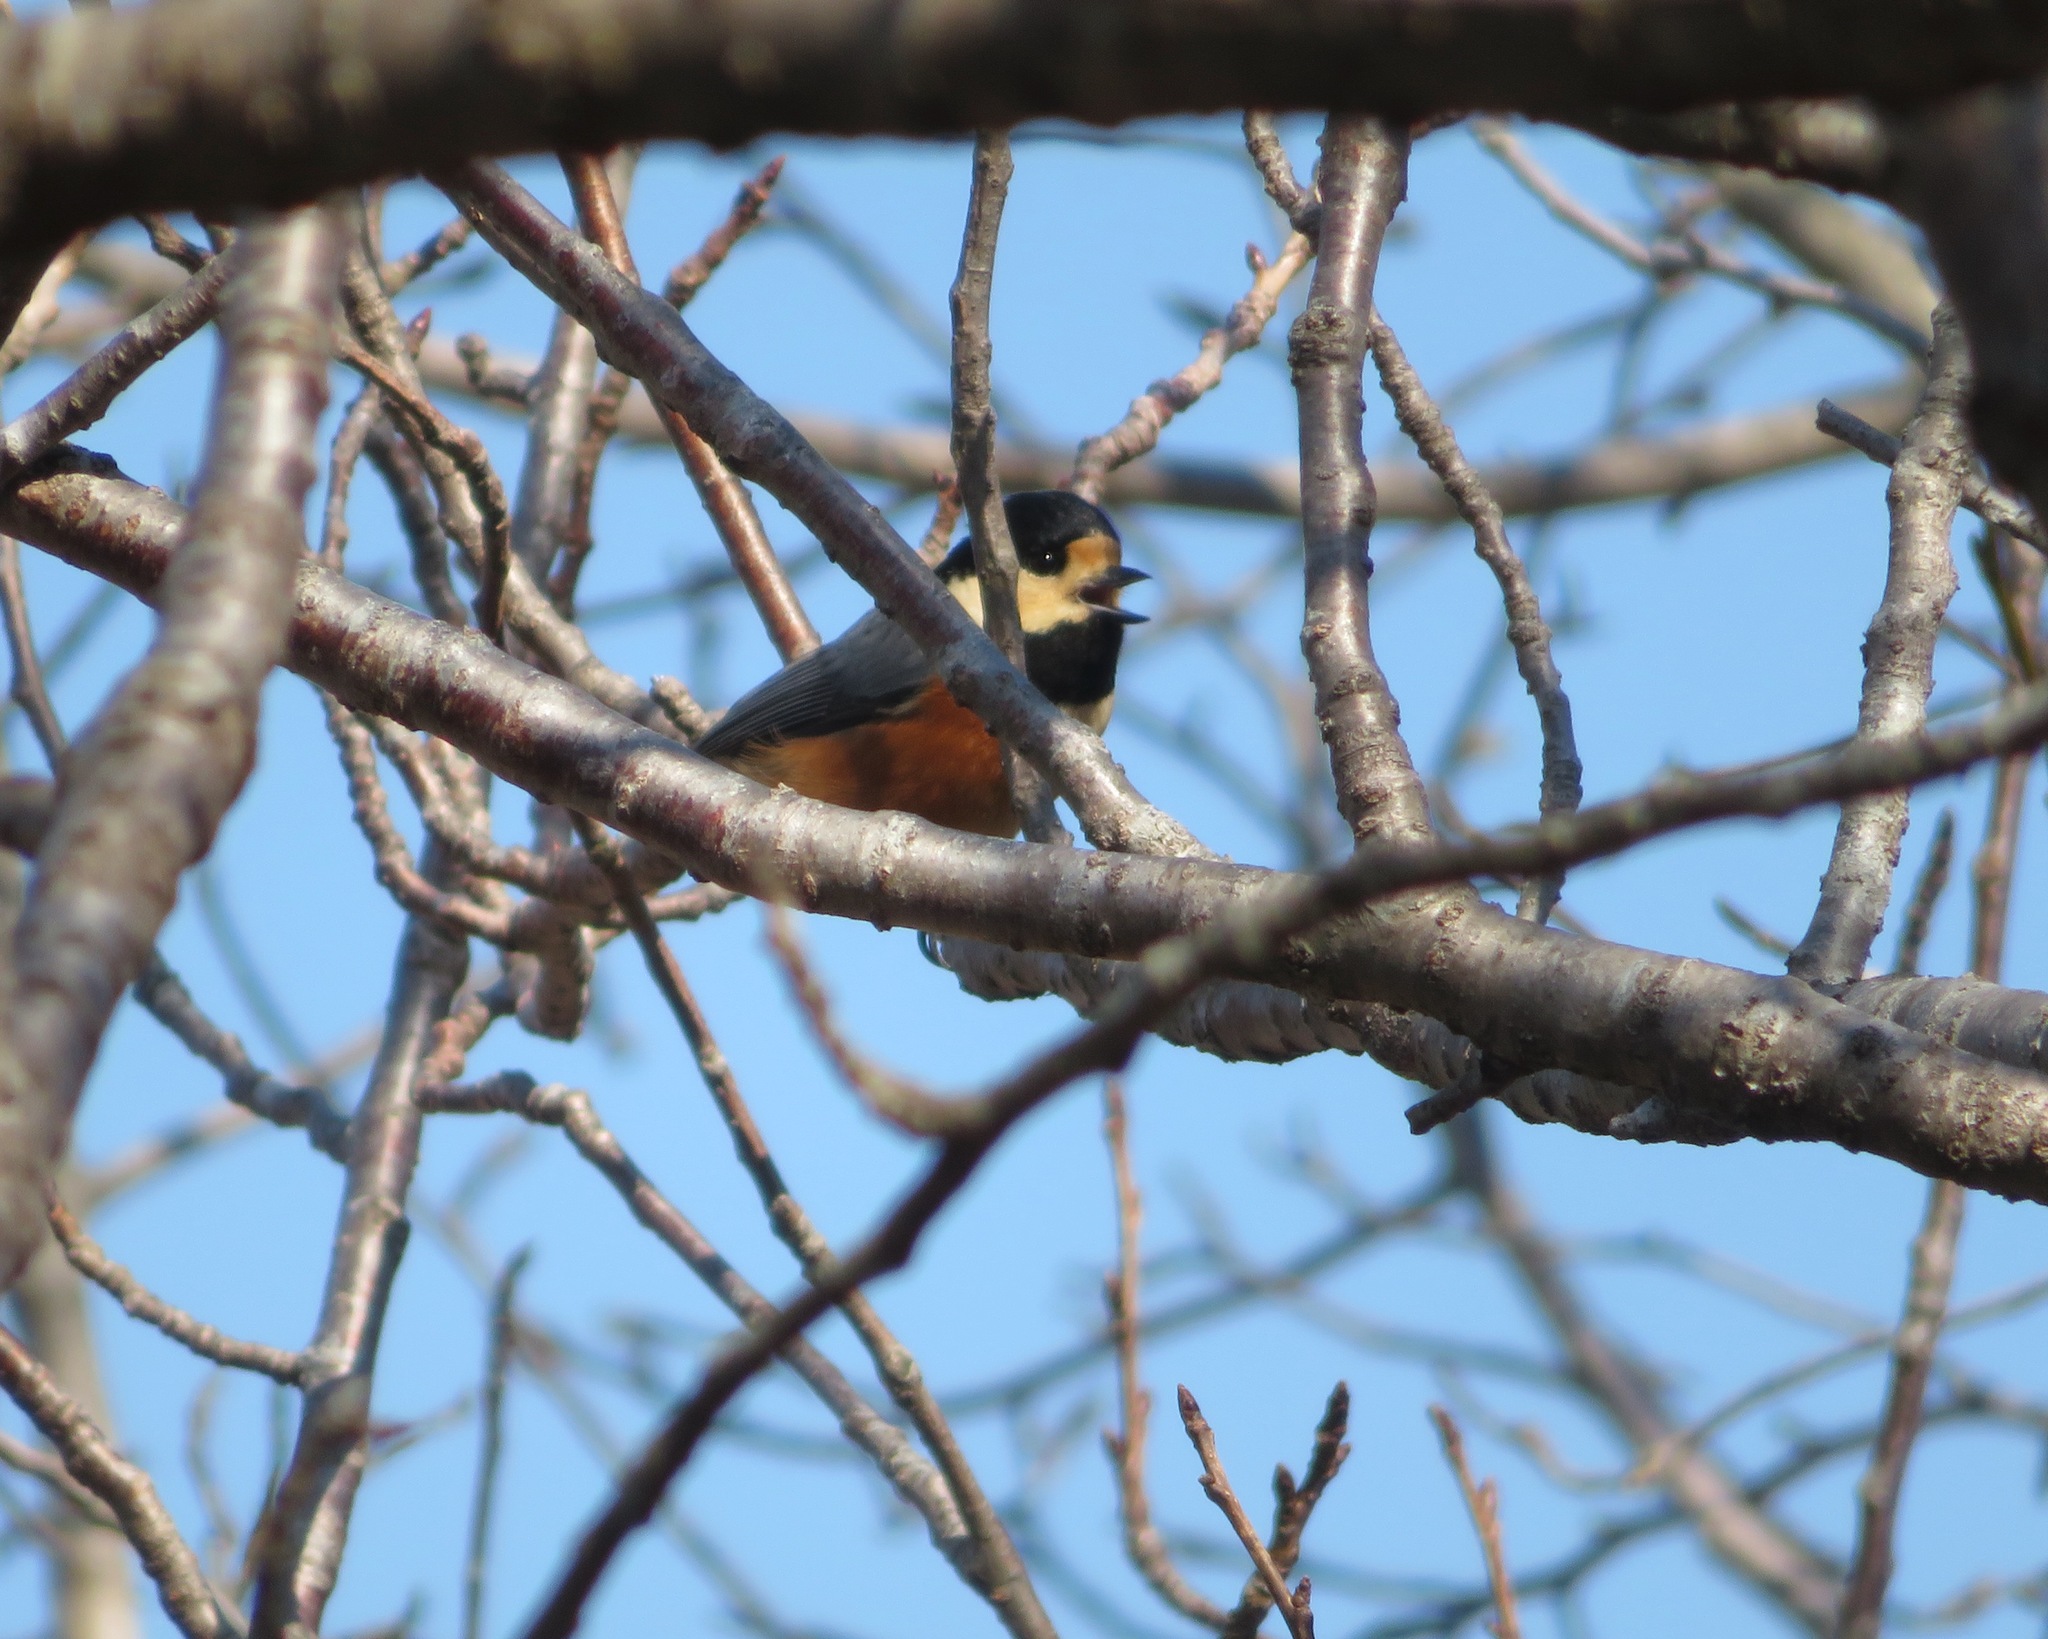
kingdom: Animalia
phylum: Chordata
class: Aves
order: Passeriformes
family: Paridae
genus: Poecile
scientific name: Poecile varius
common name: Varied tit
